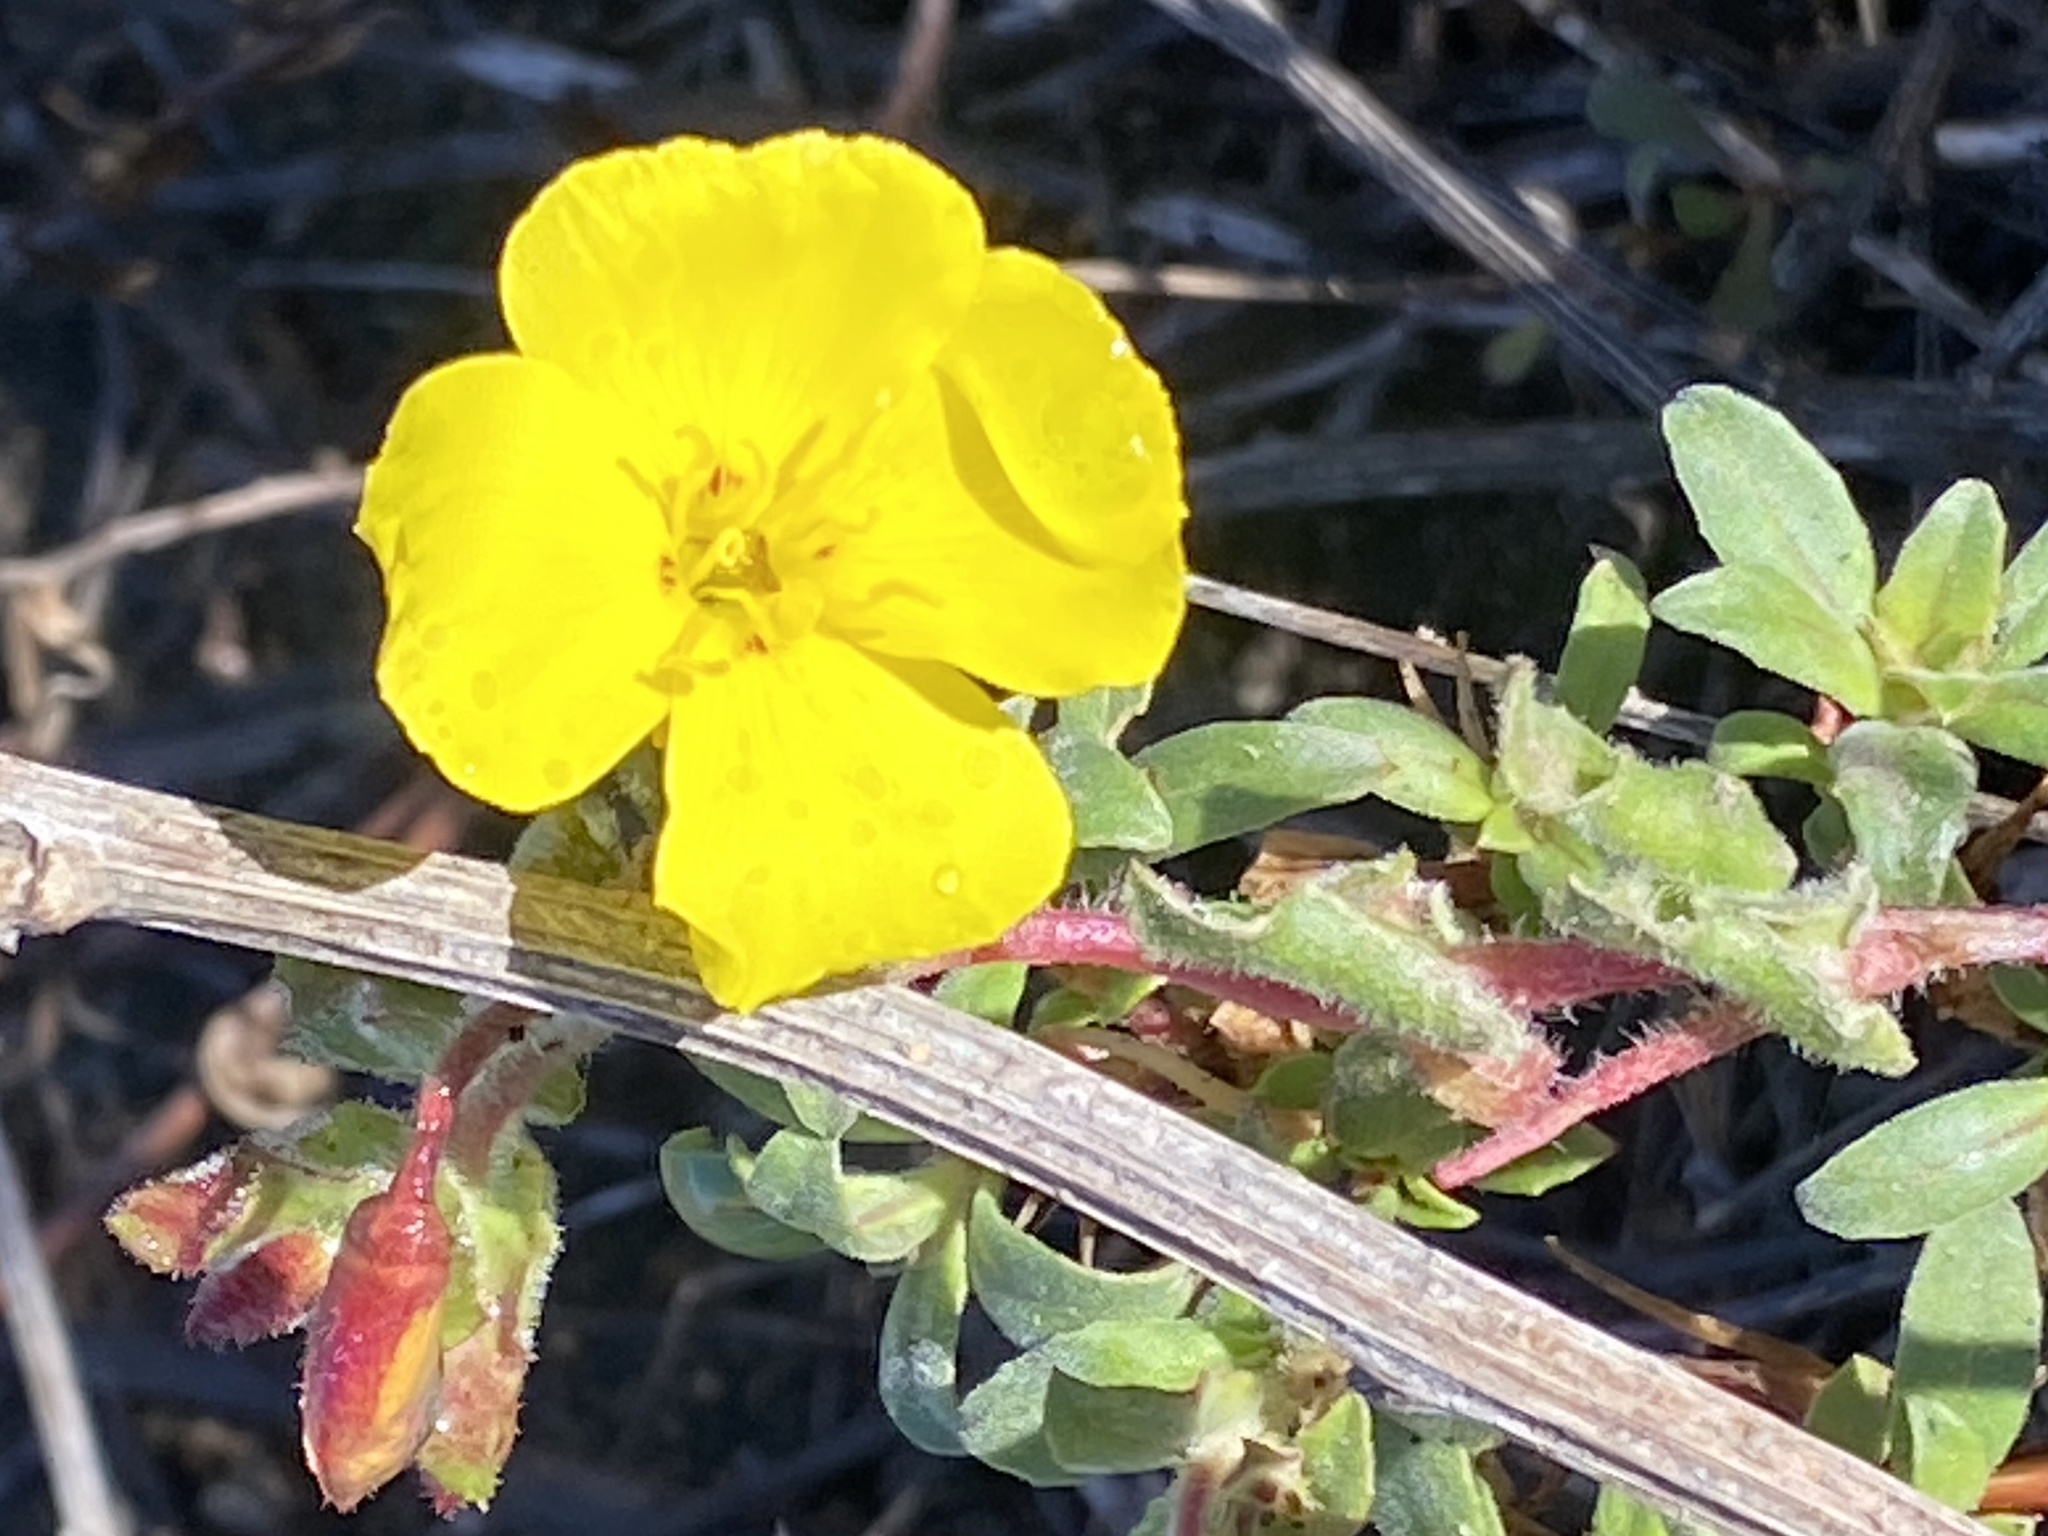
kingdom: Plantae
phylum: Tracheophyta
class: Magnoliopsida
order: Myrtales
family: Onagraceae
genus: Camissoniopsis
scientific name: Camissoniopsis cheiranthifolia
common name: Beach suncup
